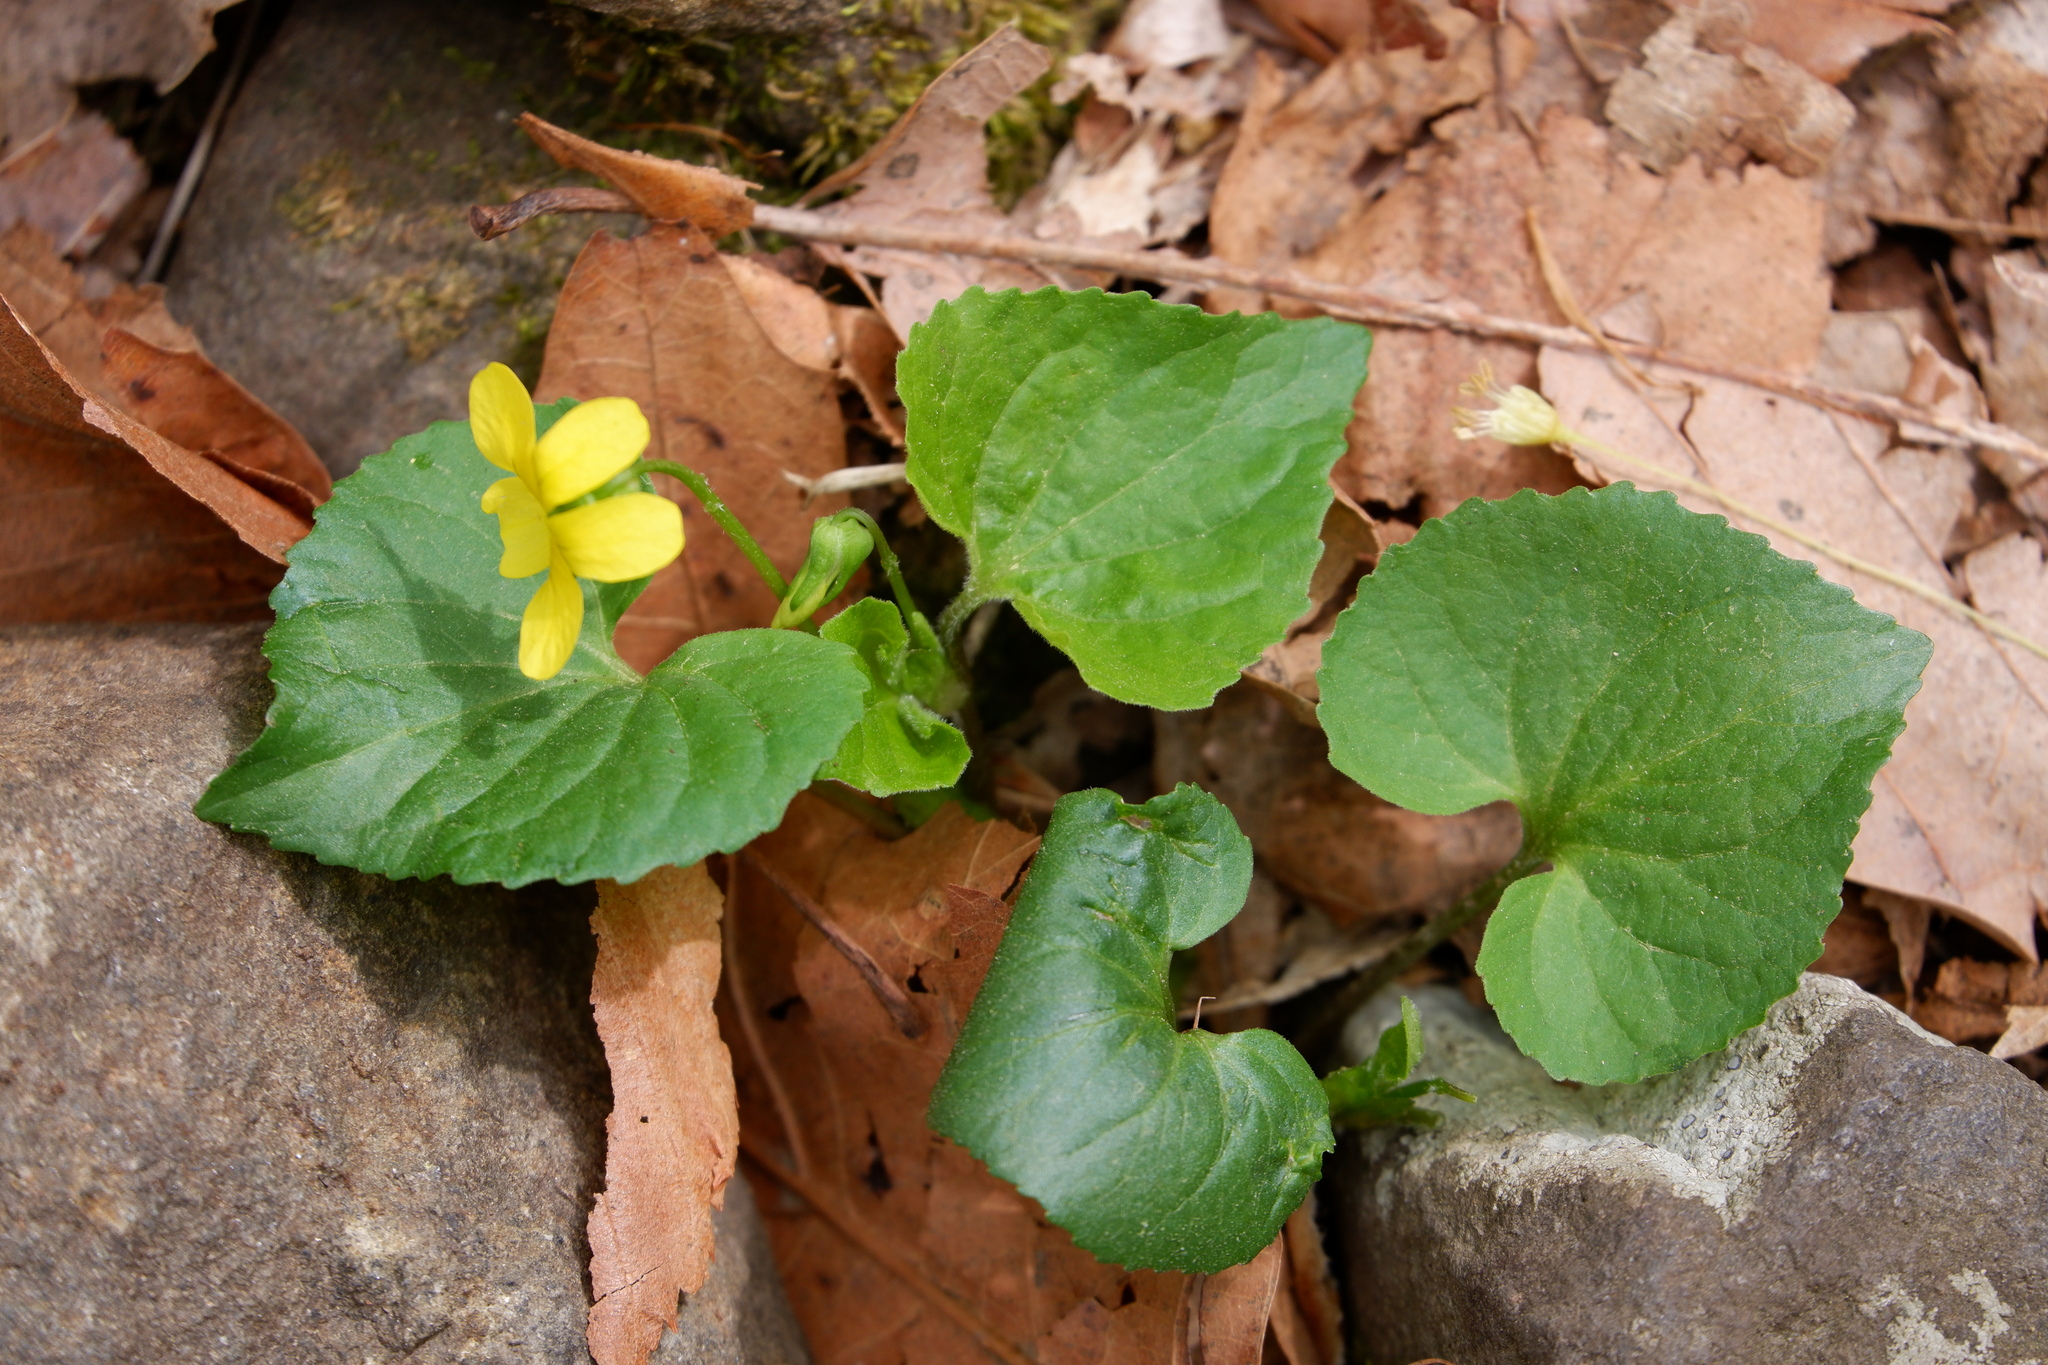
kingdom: Plantae
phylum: Tracheophyta
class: Magnoliopsida
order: Malpighiales
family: Violaceae
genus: Viola
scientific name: Viola eriocarpa
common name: Smooth yellow violet
